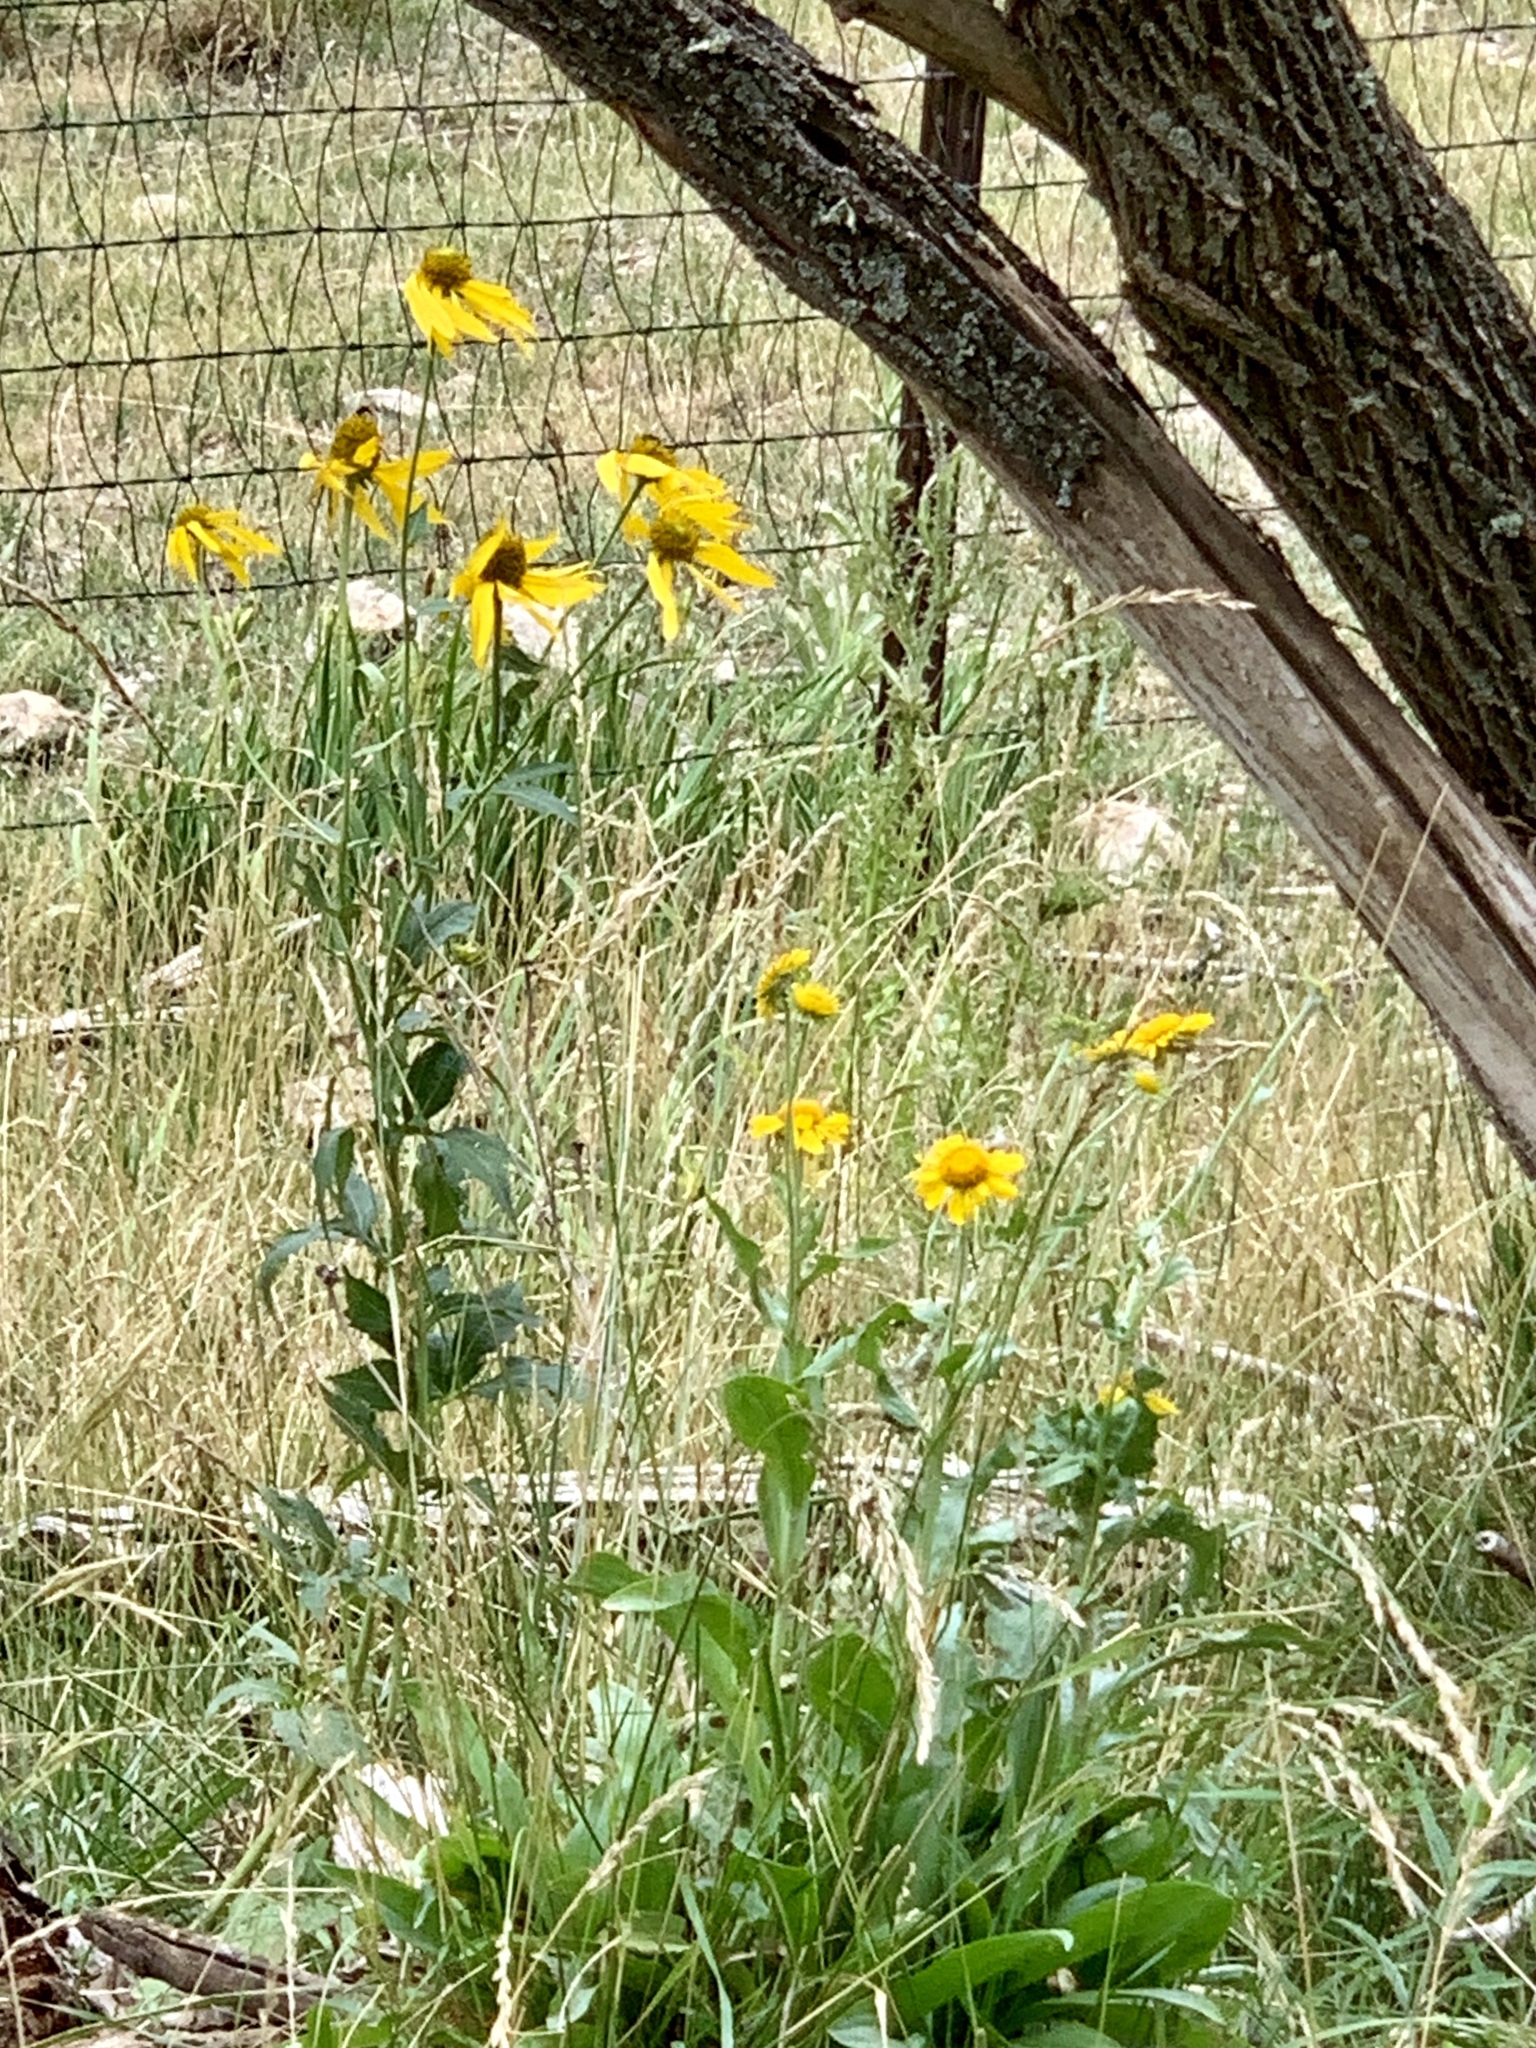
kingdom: Plantae
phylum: Tracheophyta
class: Magnoliopsida
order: Asterales
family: Asteraceae
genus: Rudbeckia
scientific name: Rudbeckia laciniata
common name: Coneflower
